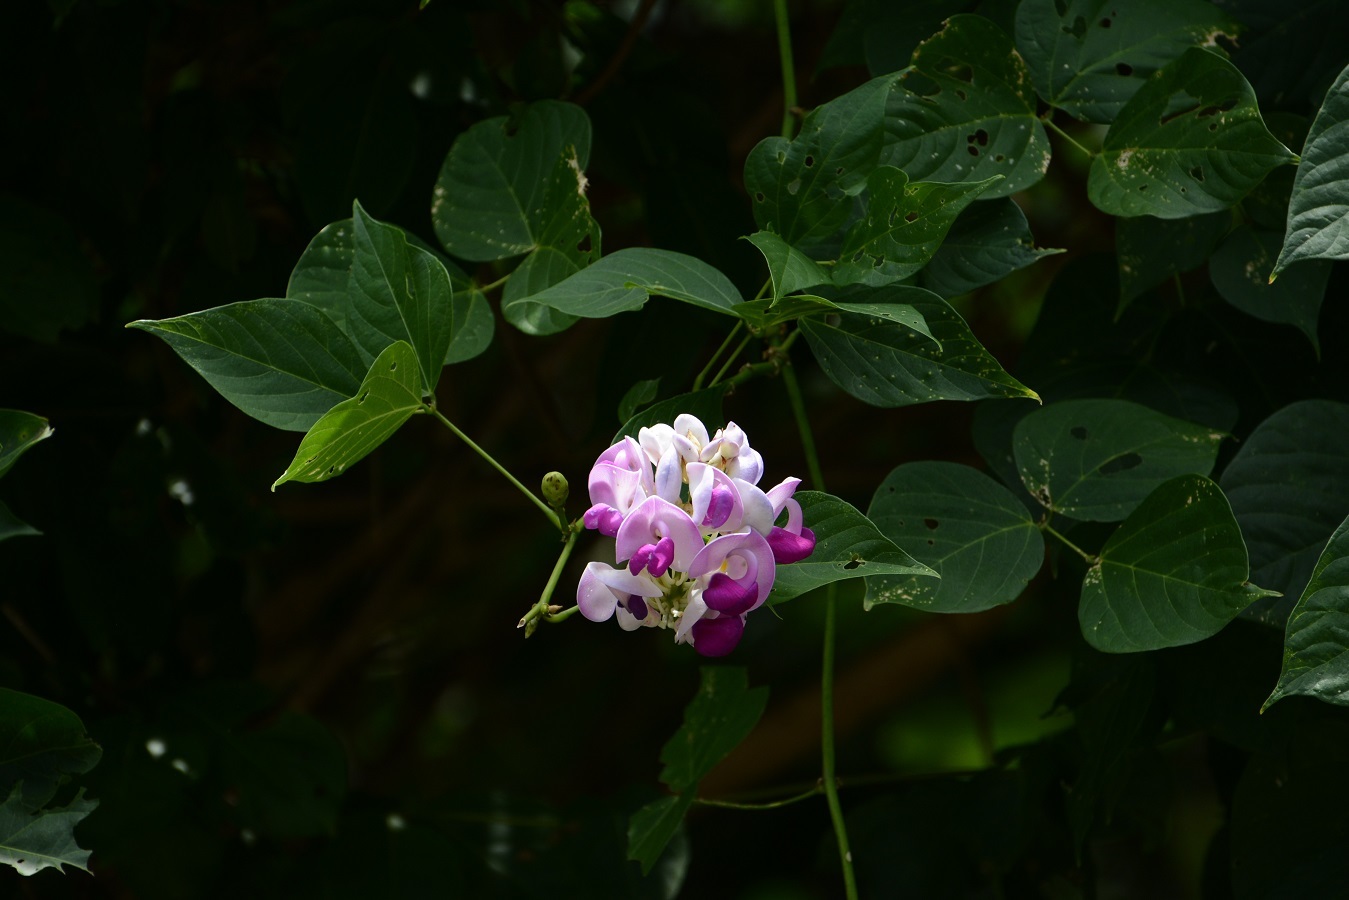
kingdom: Plantae
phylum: Tracheophyta
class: Magnoliopsida
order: Fabales
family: Fabaceae
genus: Ramirezella
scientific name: Ramirezella penduliflora
